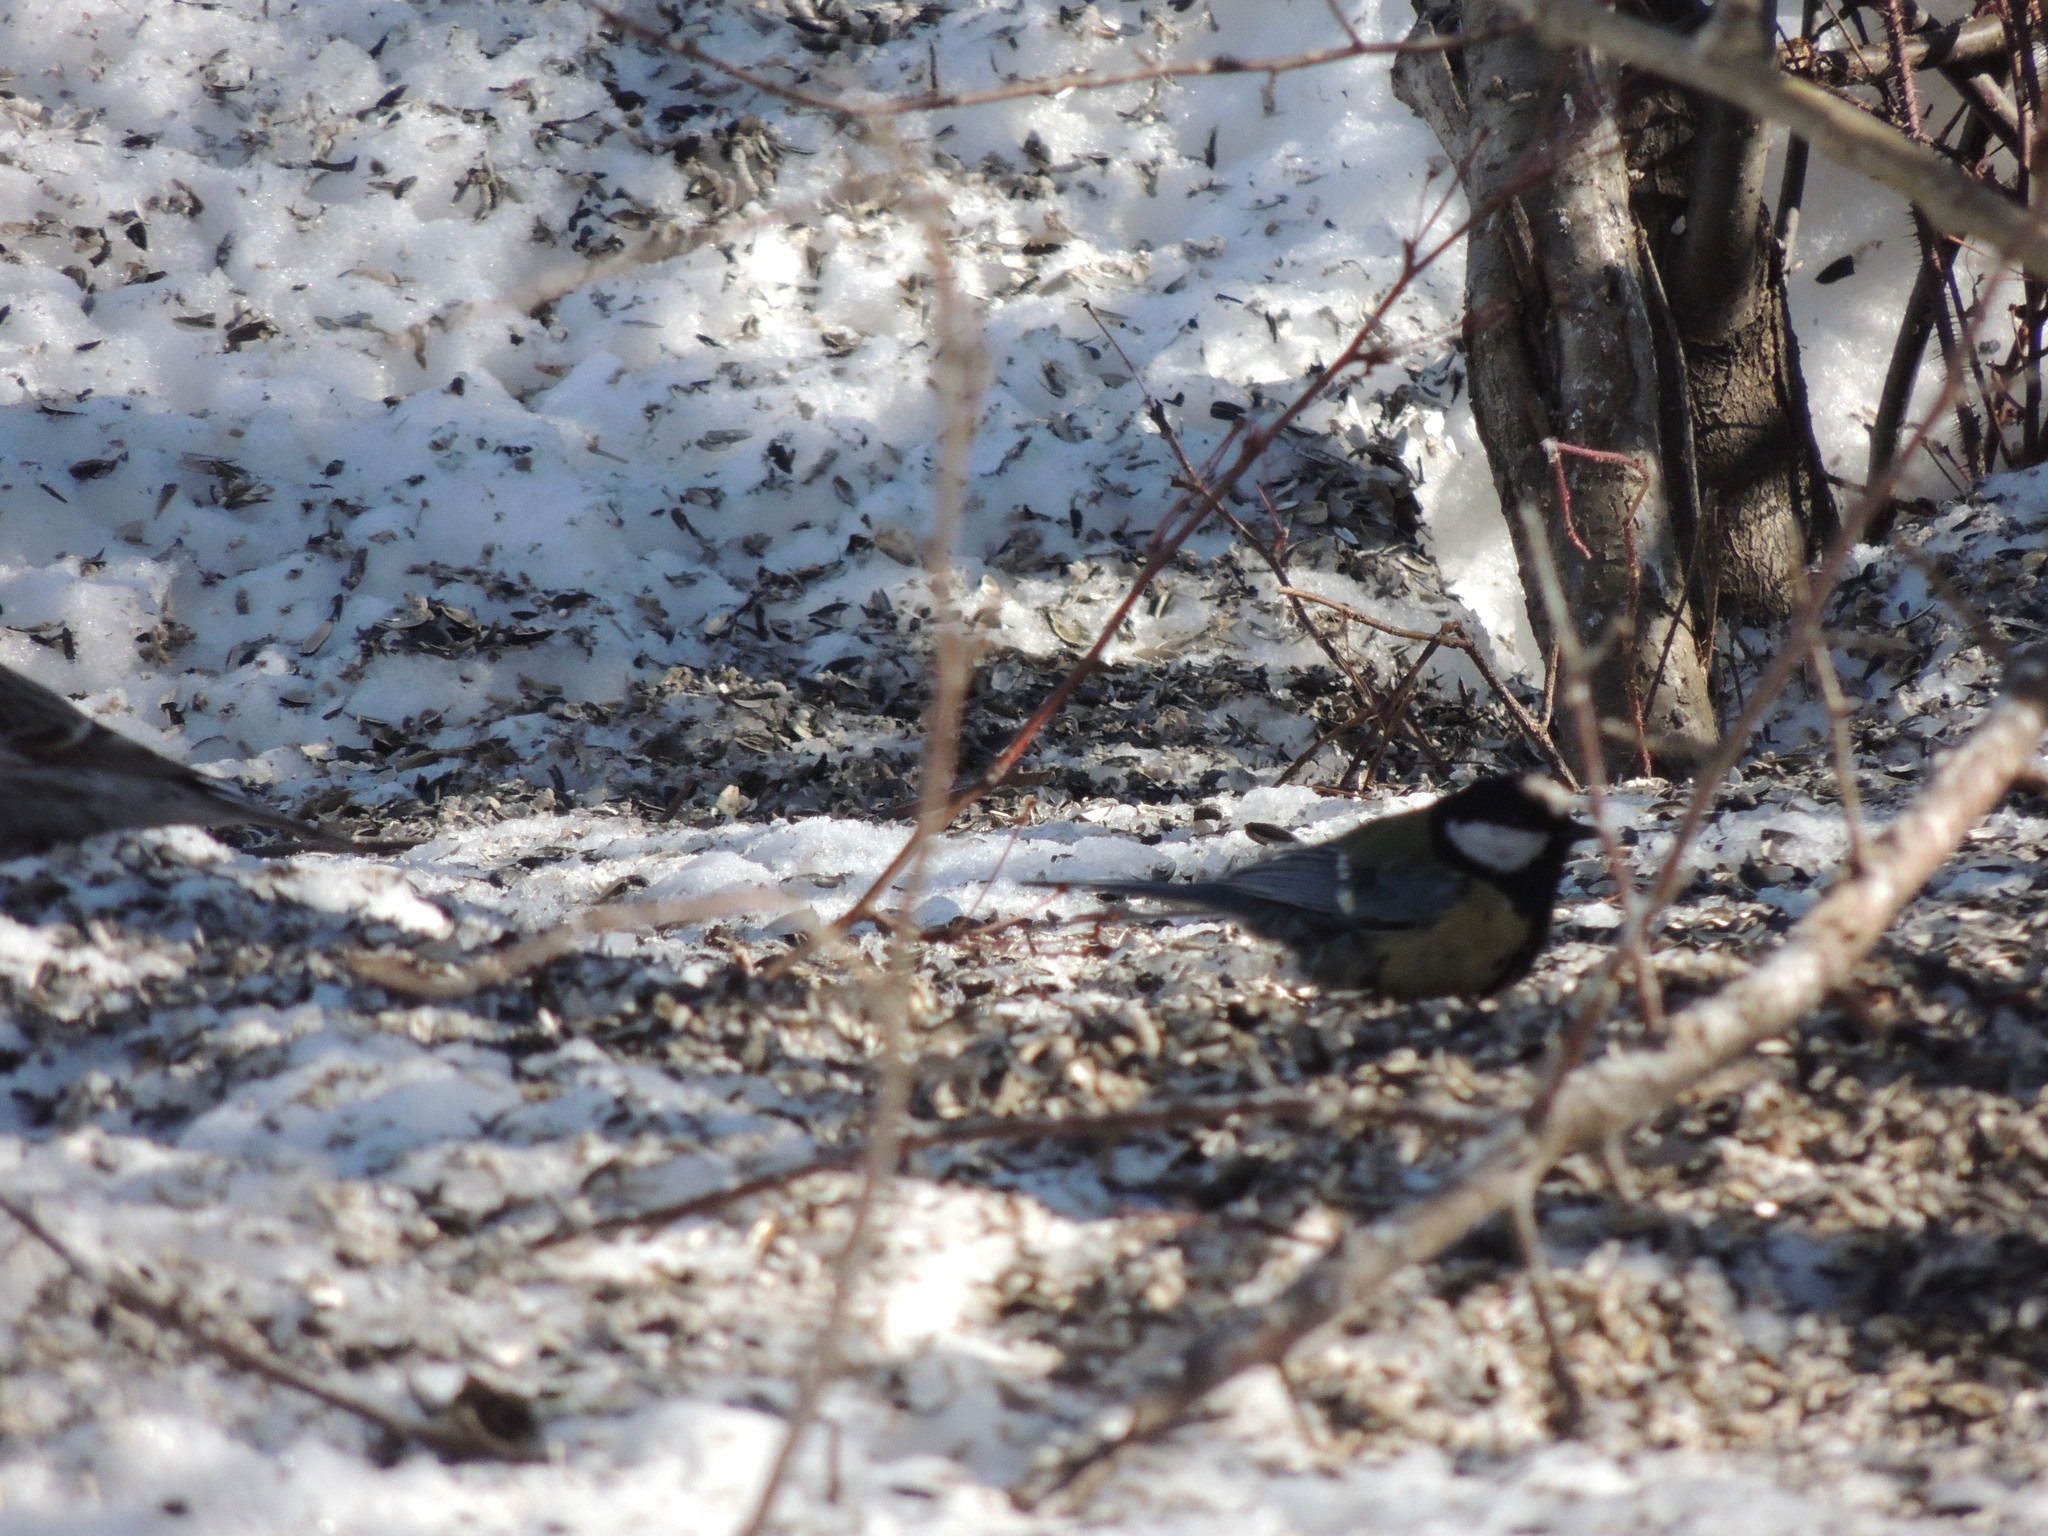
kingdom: Animalia
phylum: Chordata
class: Aves
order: Passeriformes
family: Paridae
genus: Parus
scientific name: Parus major
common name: Great tit
